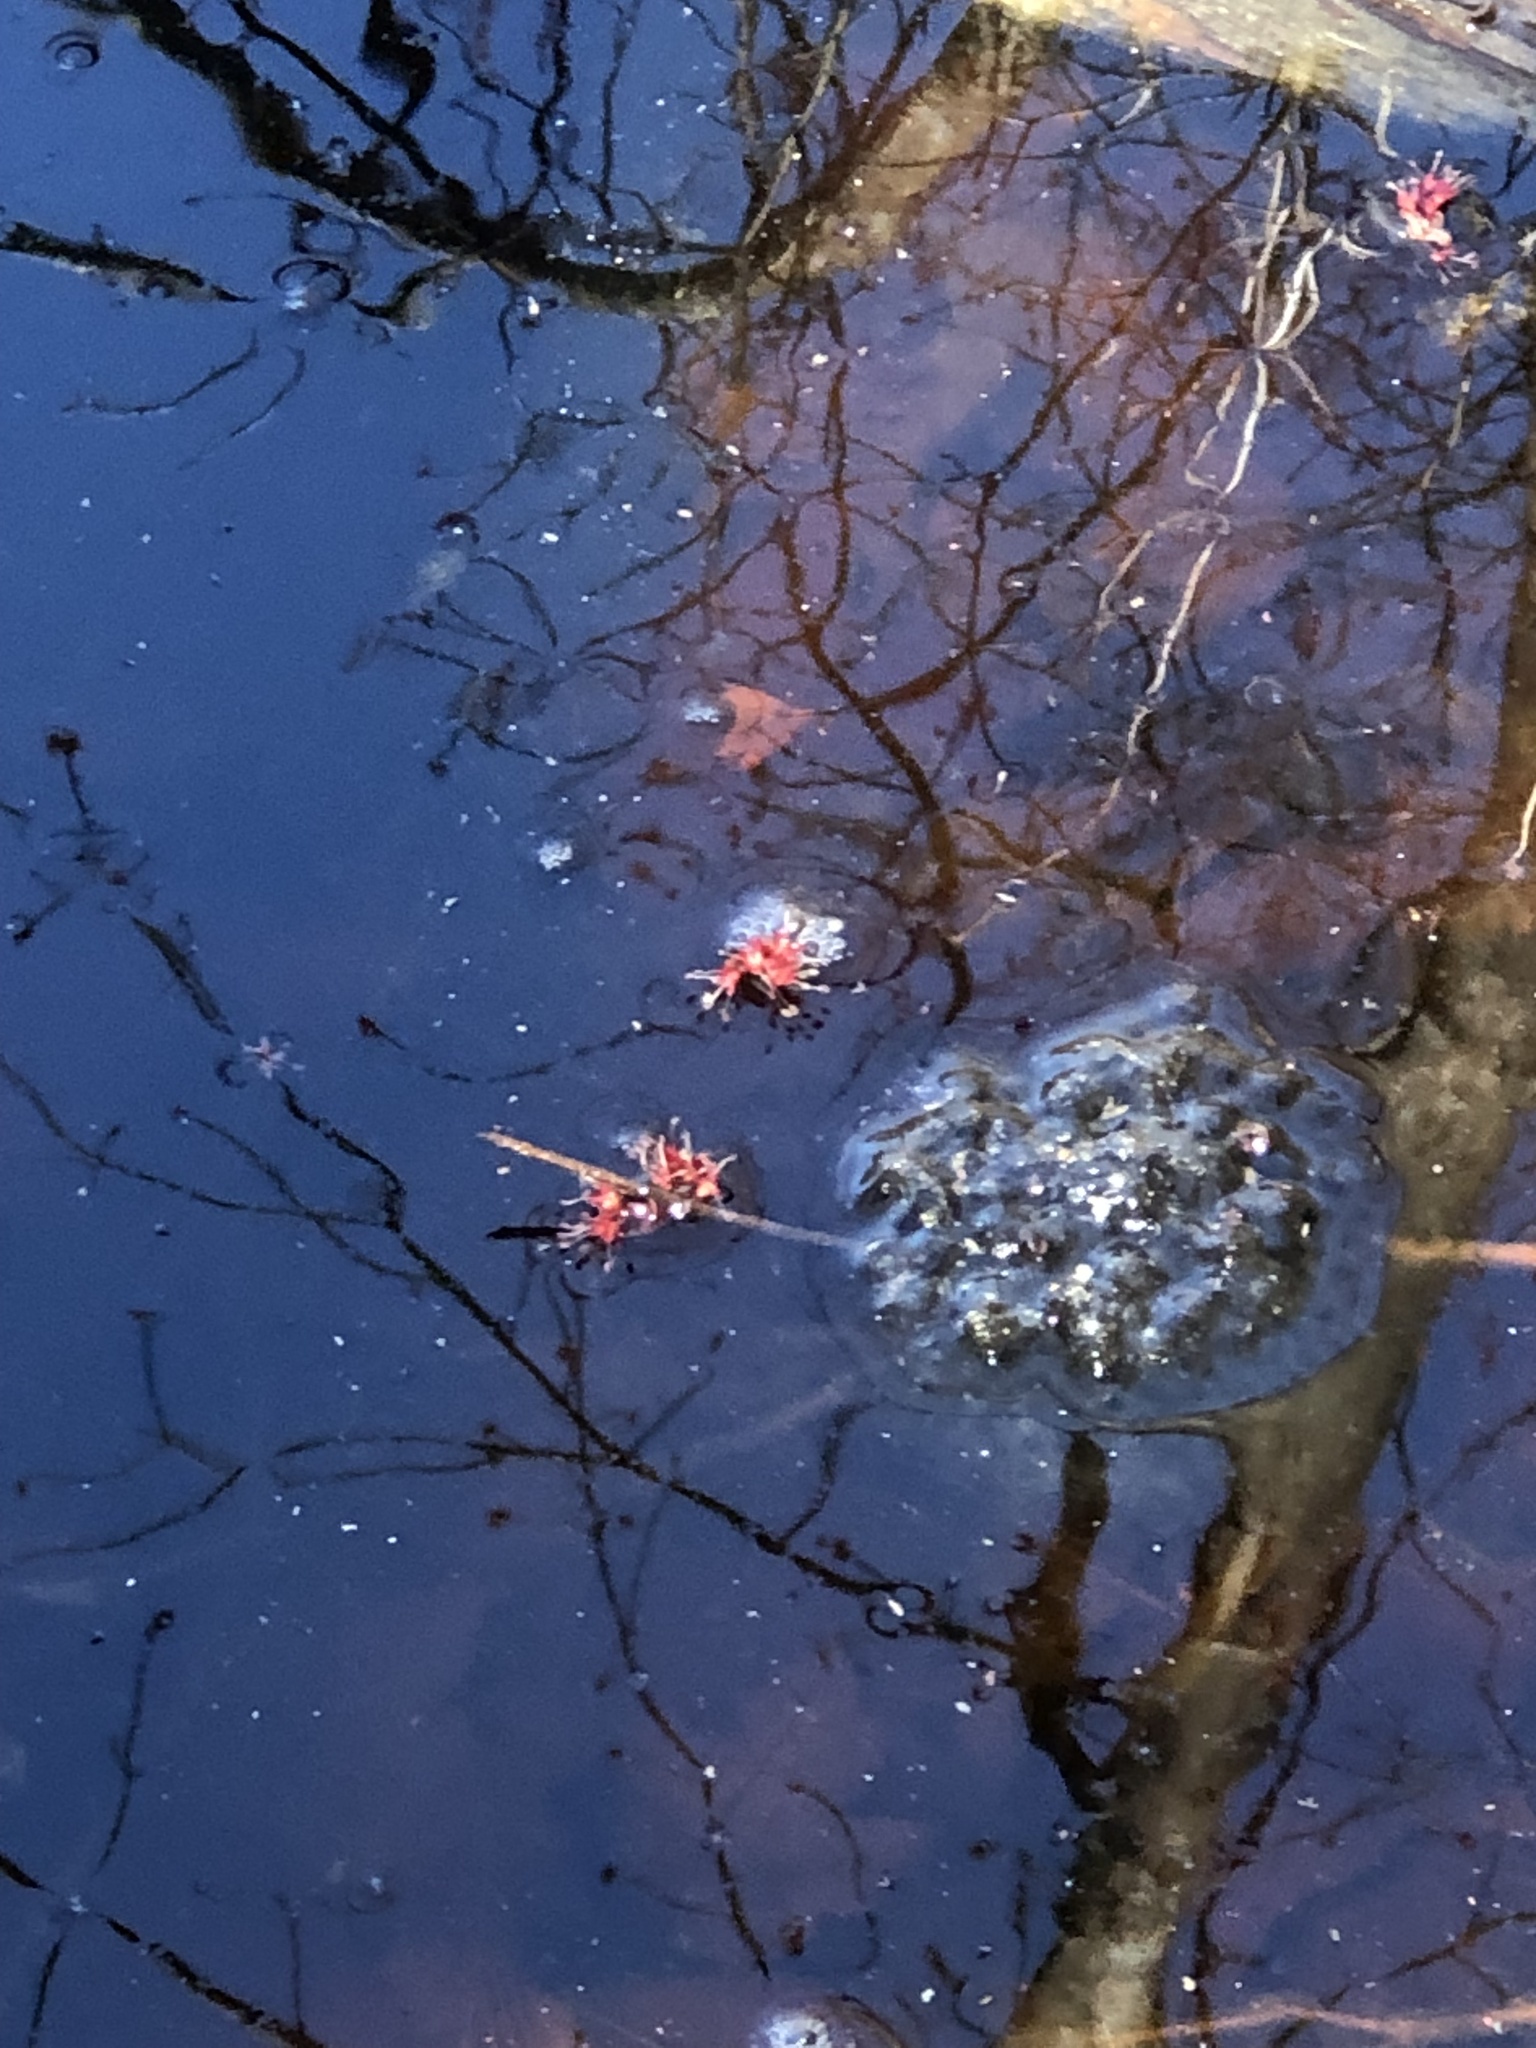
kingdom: Animalia
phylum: Chordata
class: Amphibia
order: Anura
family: Ranidae
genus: Lithobates
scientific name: Lithobates sylvaticus
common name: Wood frog
